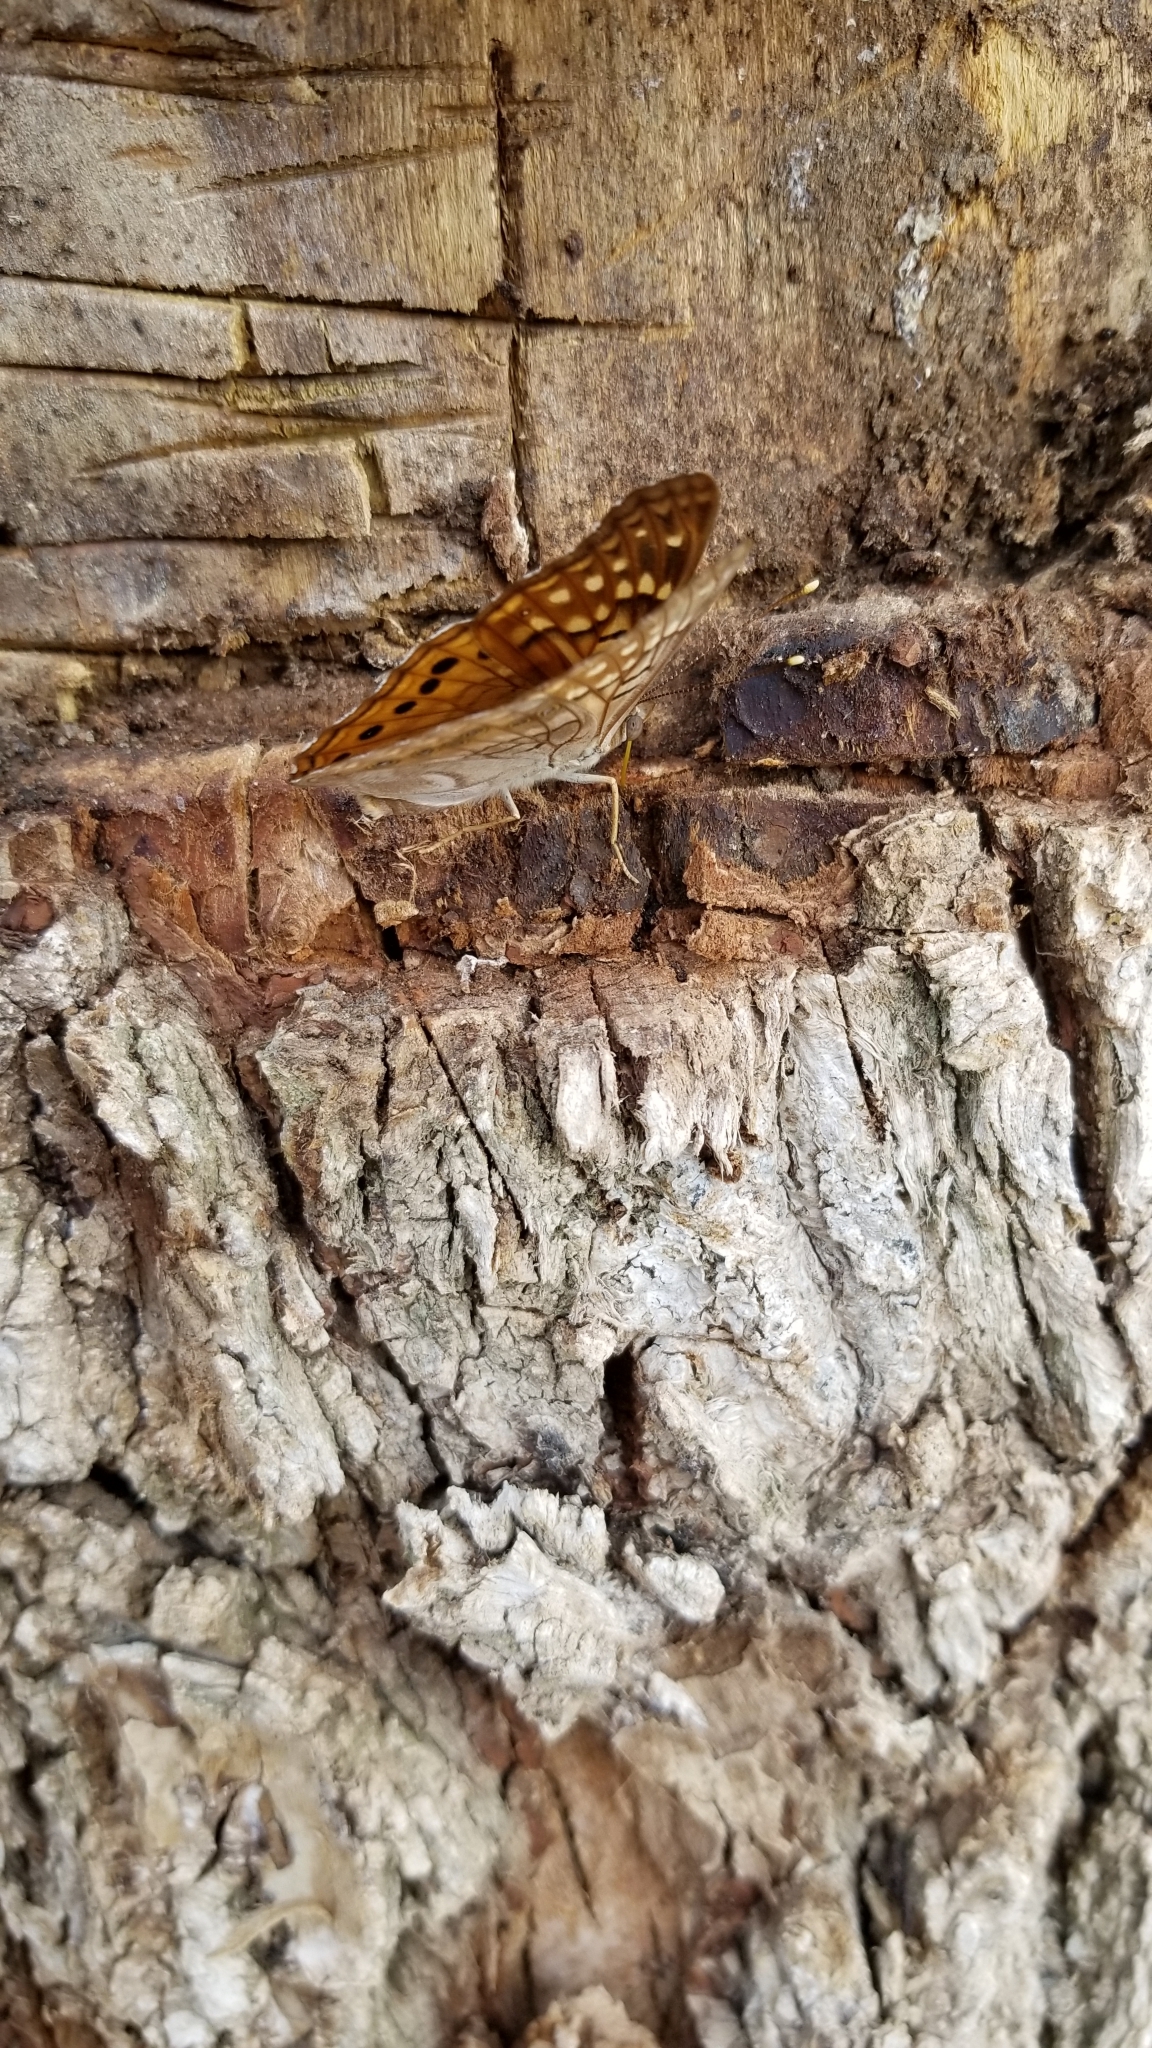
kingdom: Animalia
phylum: Arthropoda
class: Insecta
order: Lepidoptera
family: Nymphalidae
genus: Asterocampa
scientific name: Asterocampa clyton
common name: Tawny emperor
